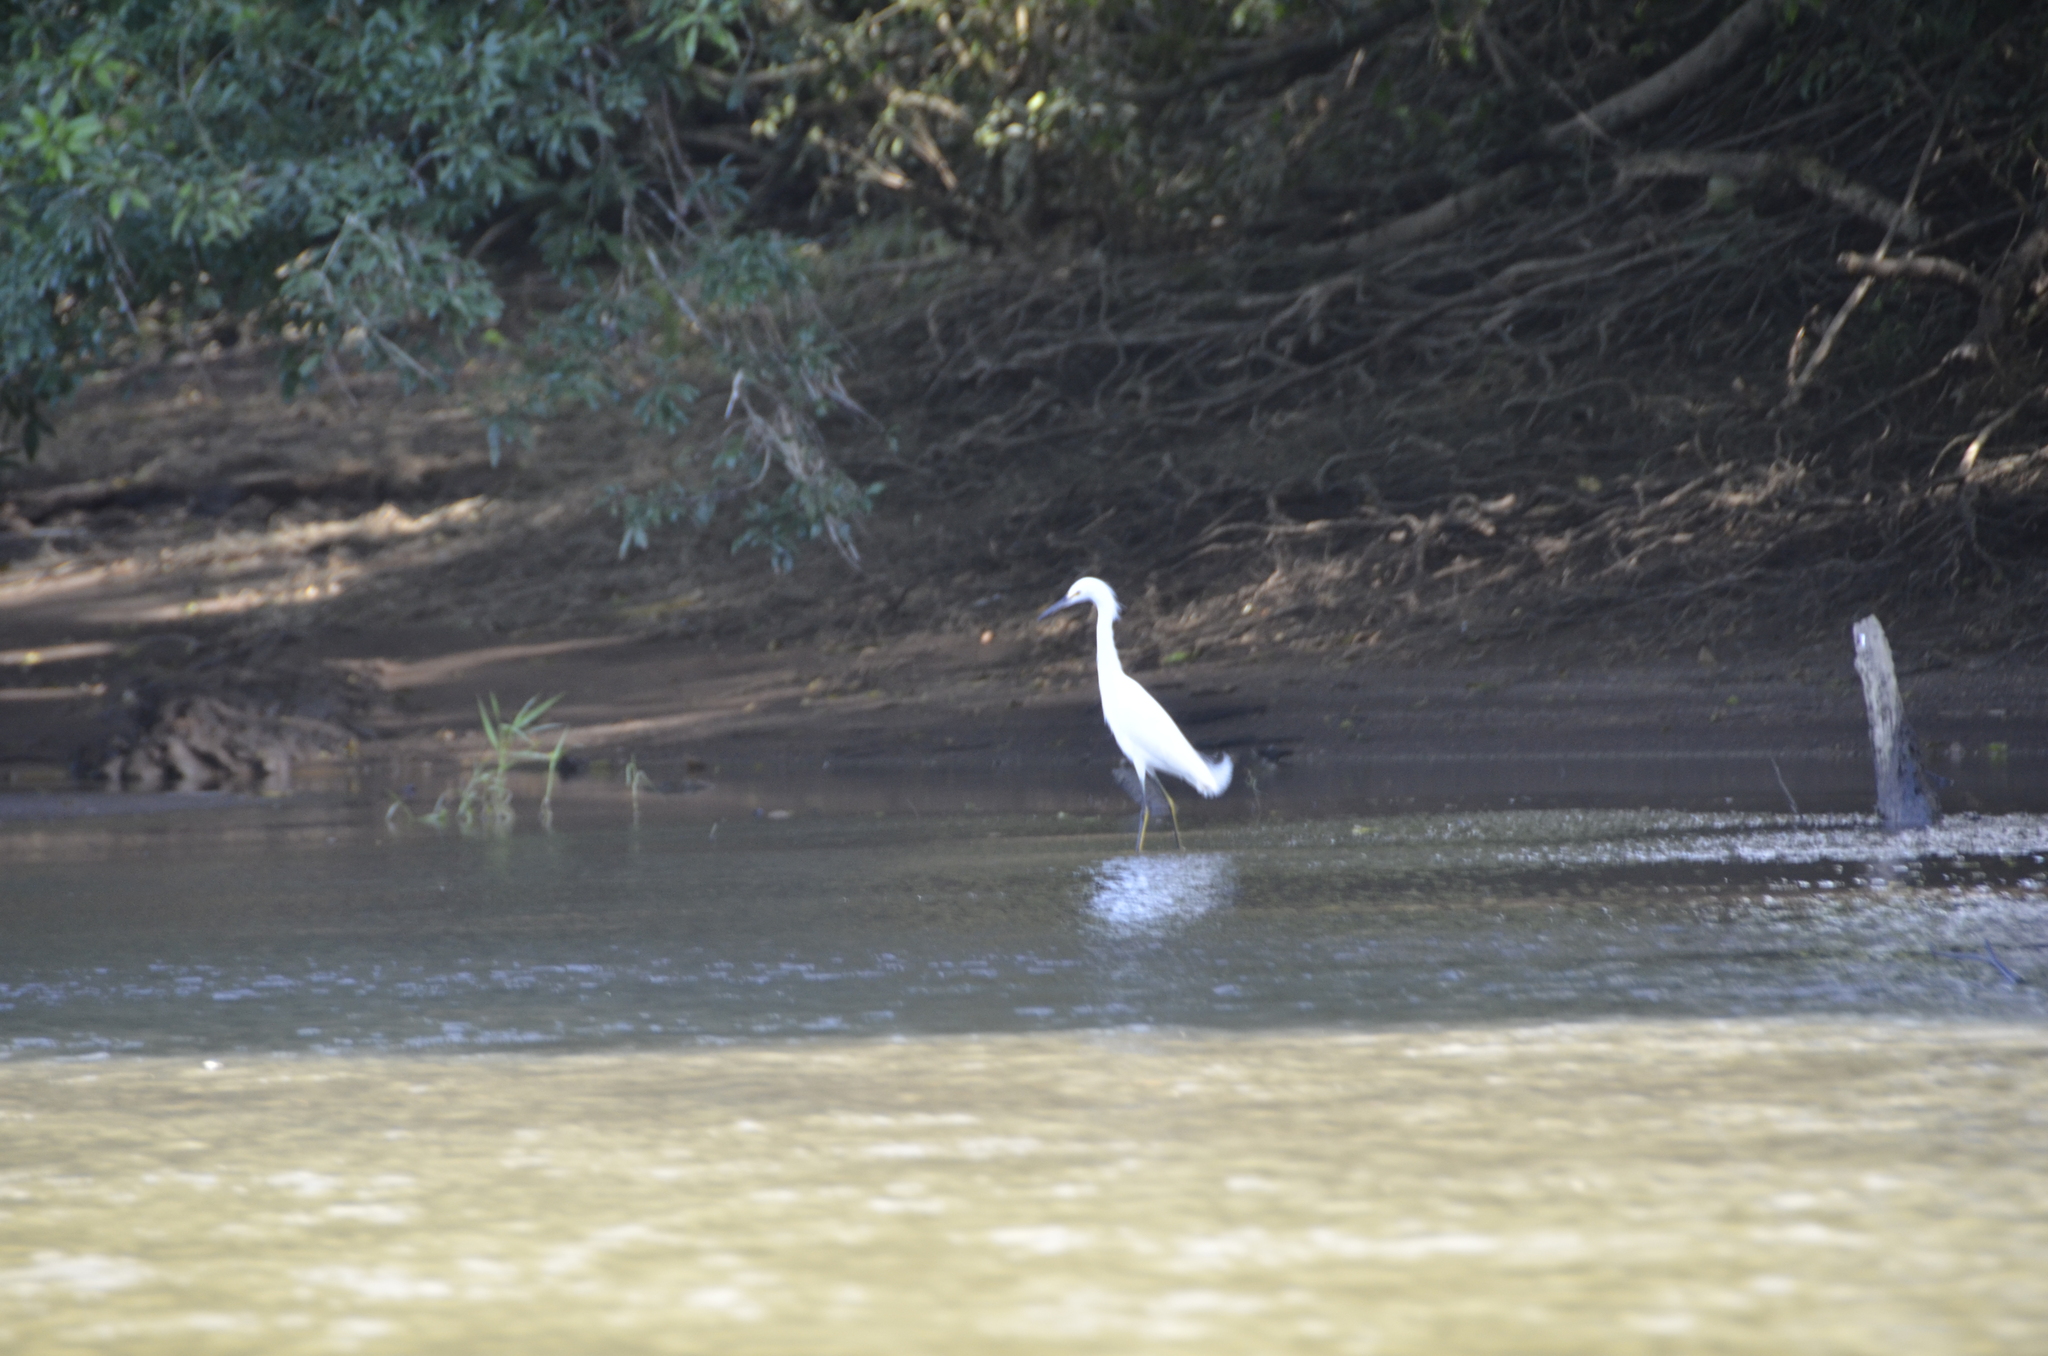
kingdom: Animalia
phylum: Chordata
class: Aves
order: Pelecaniformes
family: Ardeidae
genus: Egretta
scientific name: Egretta thula
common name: Snowy egret
